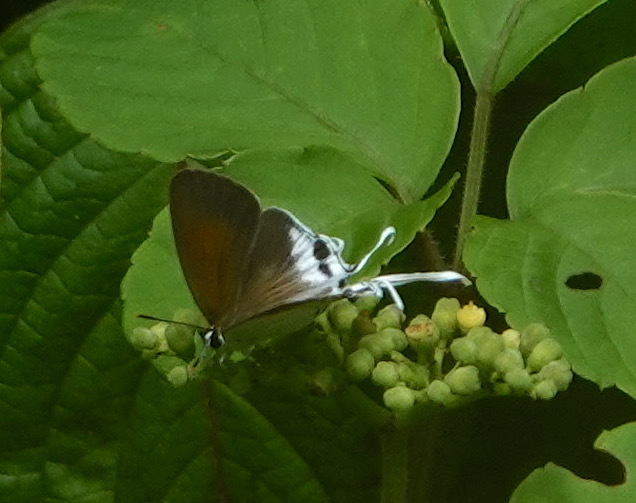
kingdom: Animalia
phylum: Arthropoda
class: Insecta
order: Lepidoptera
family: Lycaenidae
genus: Suasa
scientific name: Suasa lisides
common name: Red imperial
